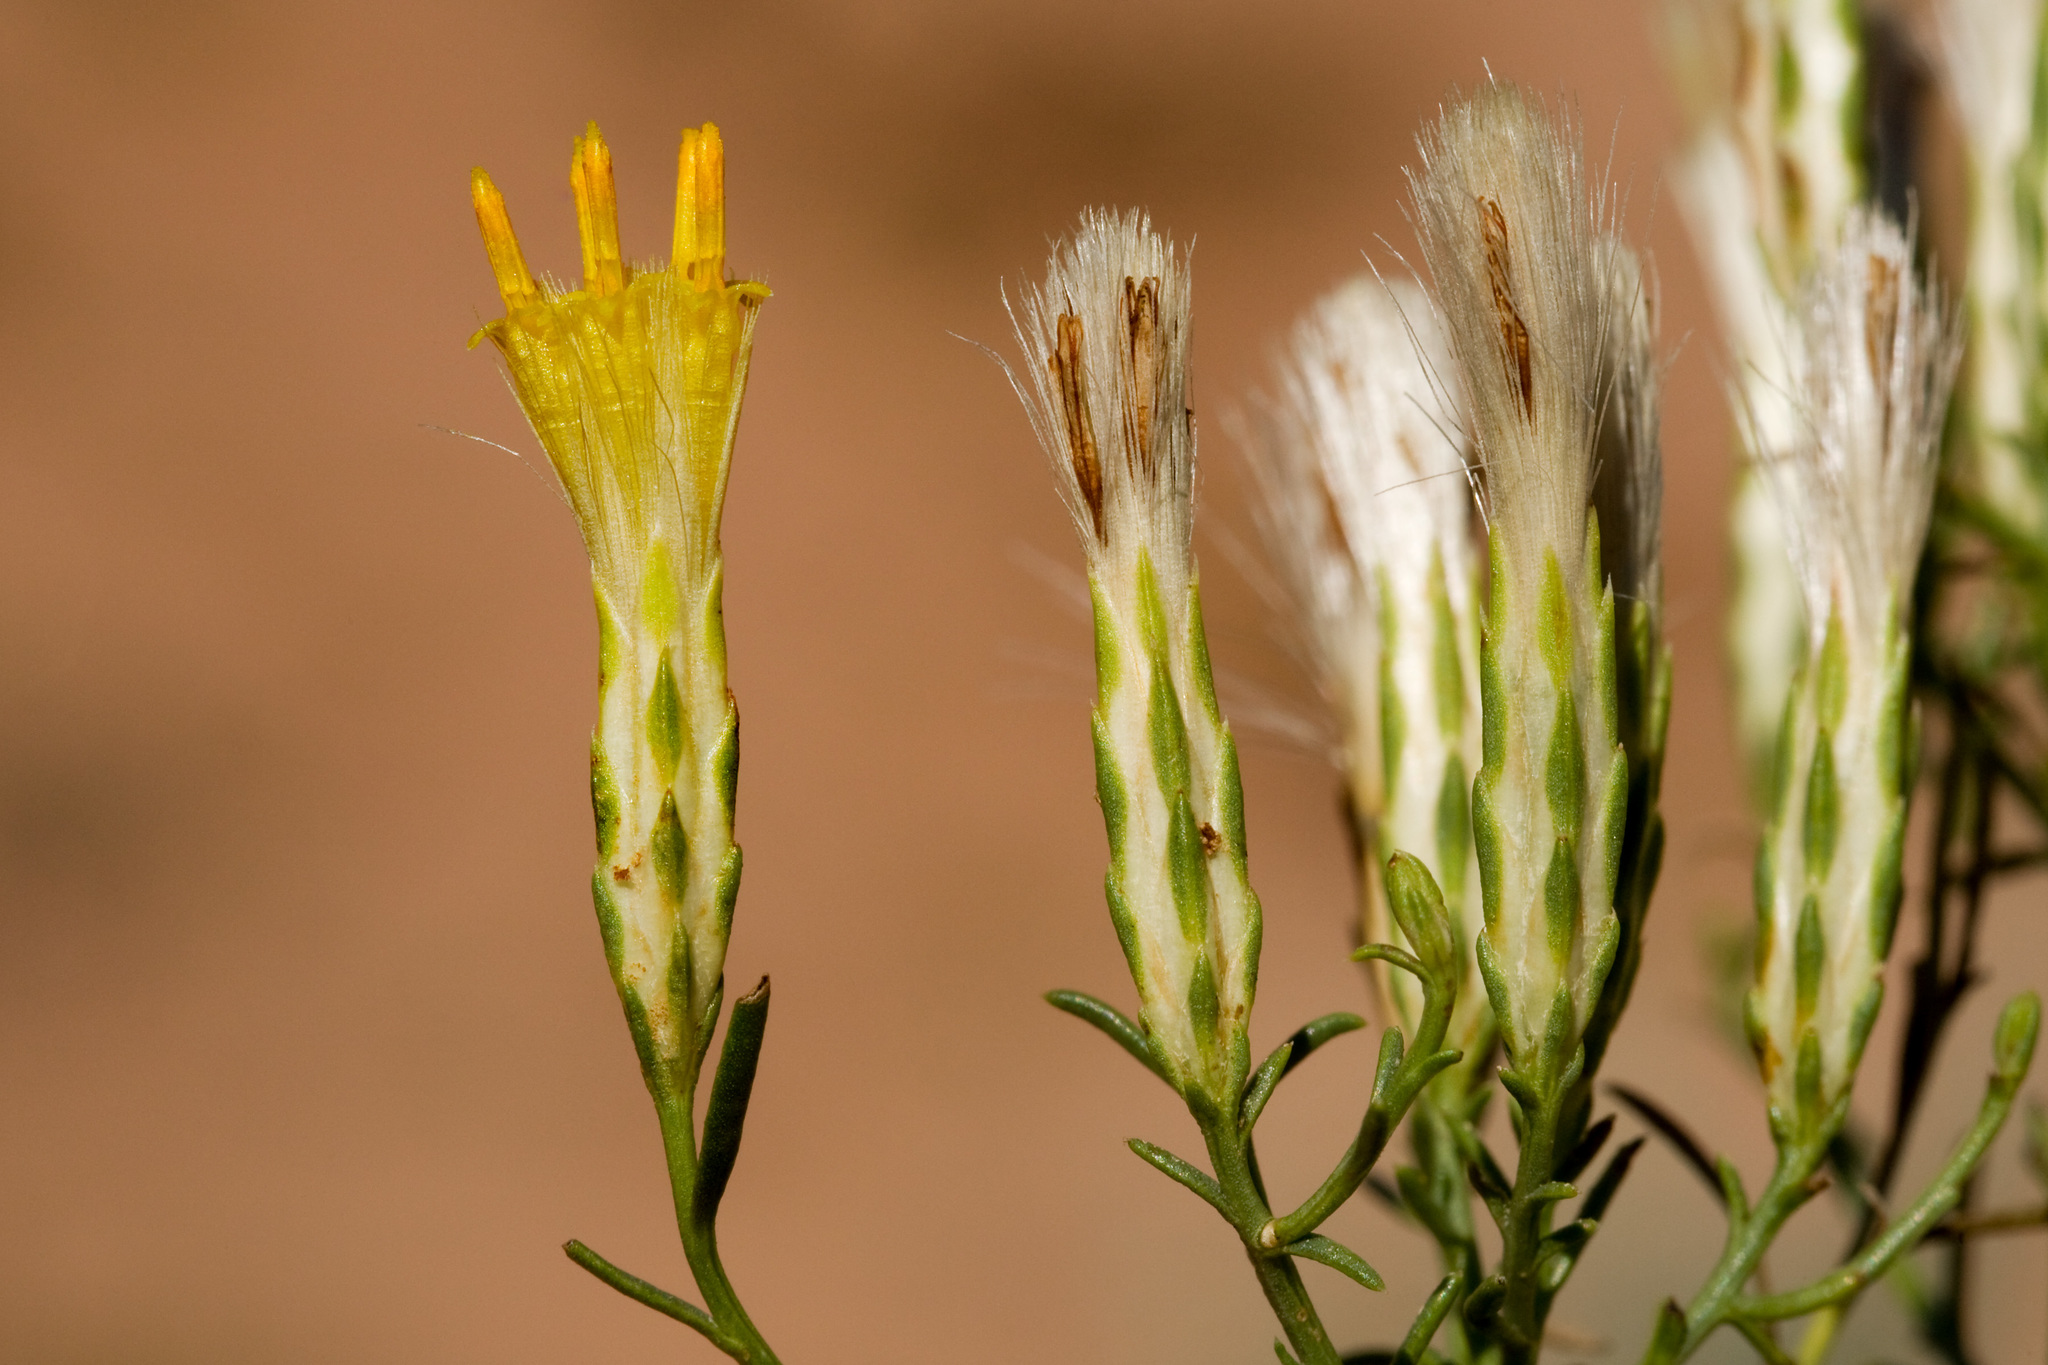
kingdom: Plantae
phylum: Tracheophyta
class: Magnoliopsida
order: Asterales
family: Asteraceae
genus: Lorandersonia
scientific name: Lorandersonia pulchella
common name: Southwestern rabbitbrush
